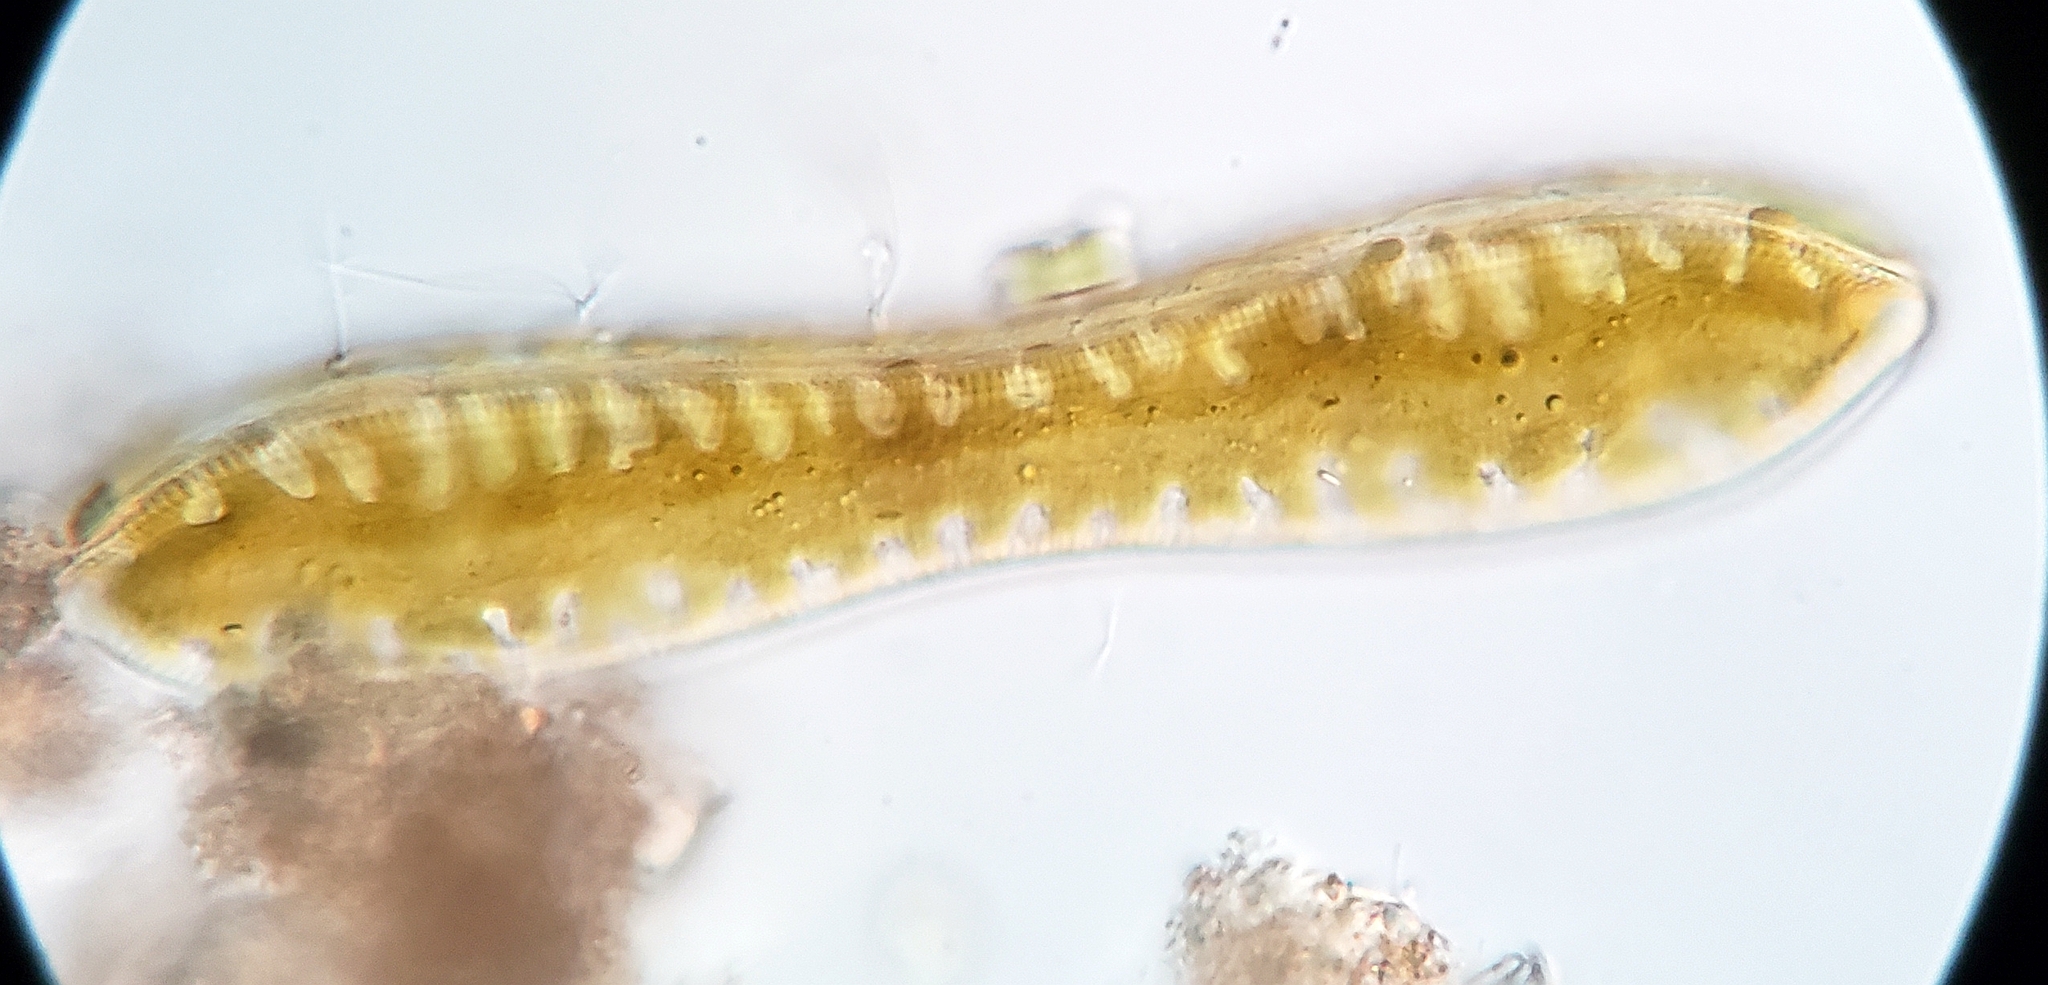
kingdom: Chromista
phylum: Ochrophyta
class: Bacillariophyceae
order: Surirellales
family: Surirellaceae
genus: Surirella
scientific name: Surirella librile
